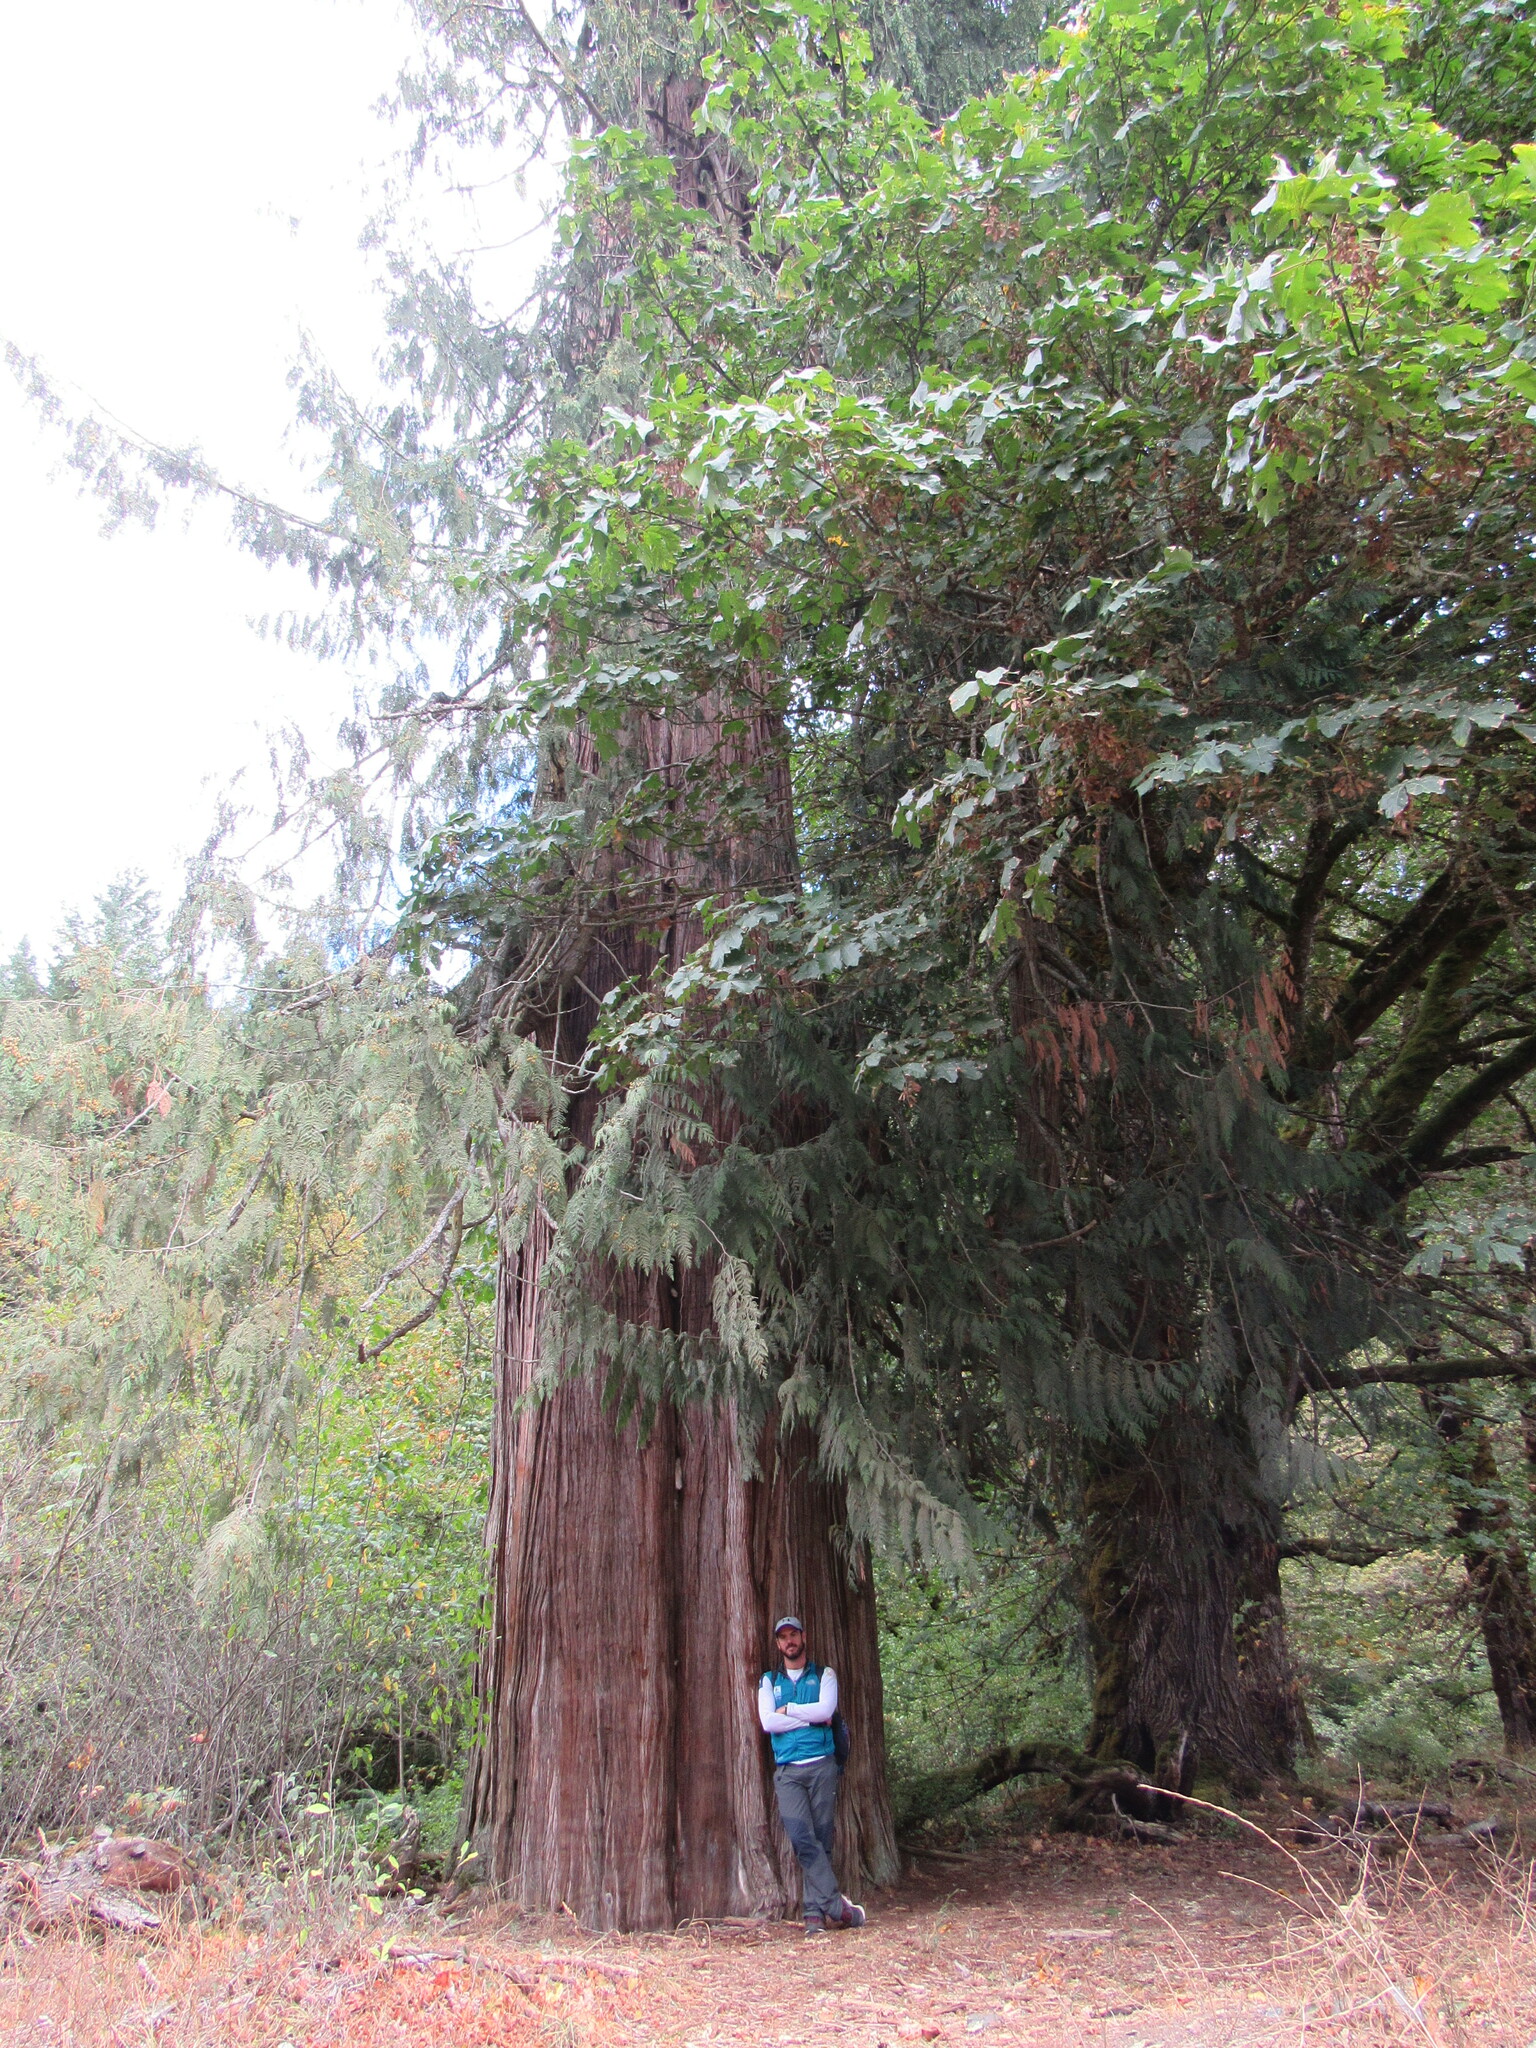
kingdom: Plantae
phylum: Tracheophyta
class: Pinopsida
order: Pinales
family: Cupressaceae
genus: Thuja
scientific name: Thuja plicata
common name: Western red-cedar
